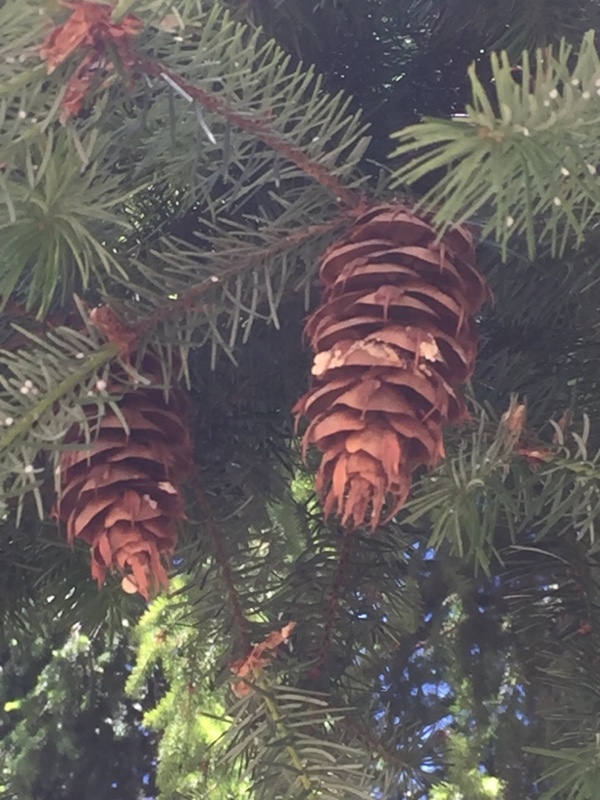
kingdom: Plantae
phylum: Tracheophyta
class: Pinopsida
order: Pinales
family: Pinaceae
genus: Pseudotsuga
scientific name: Pseudotsuga menziesii
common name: Douglas fir
